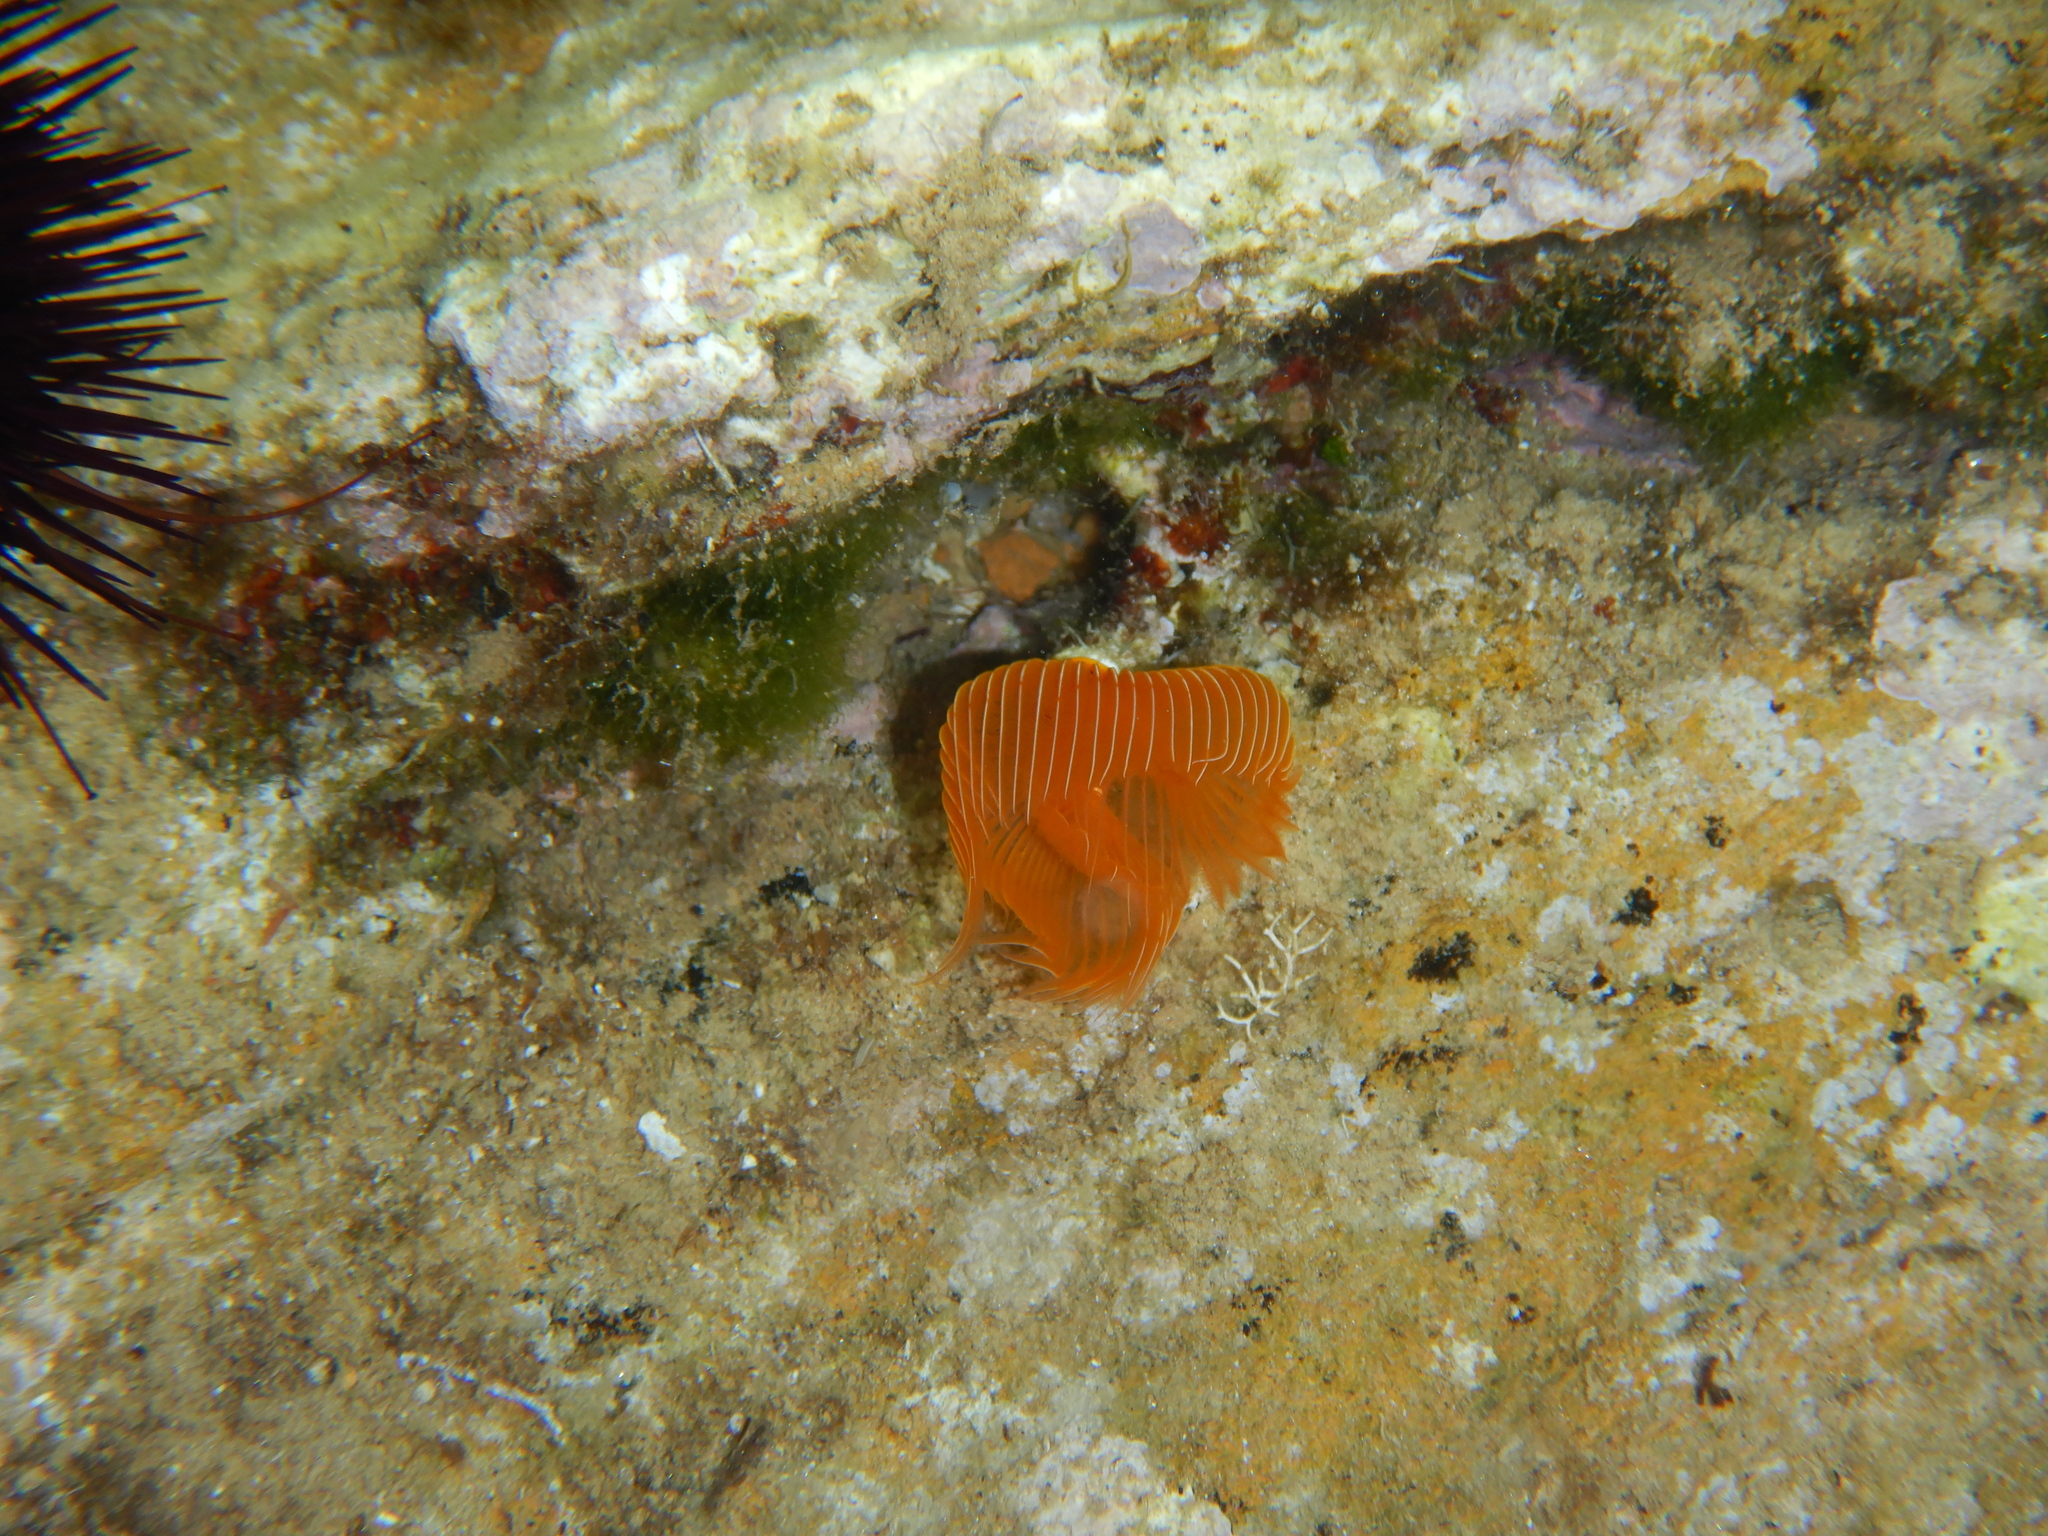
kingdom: Animalia
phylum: Annelida
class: Polychaeta
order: Sabellida
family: Serpulidae
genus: Protula
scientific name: Protula tubularia
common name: Red-spotted horseshoe
